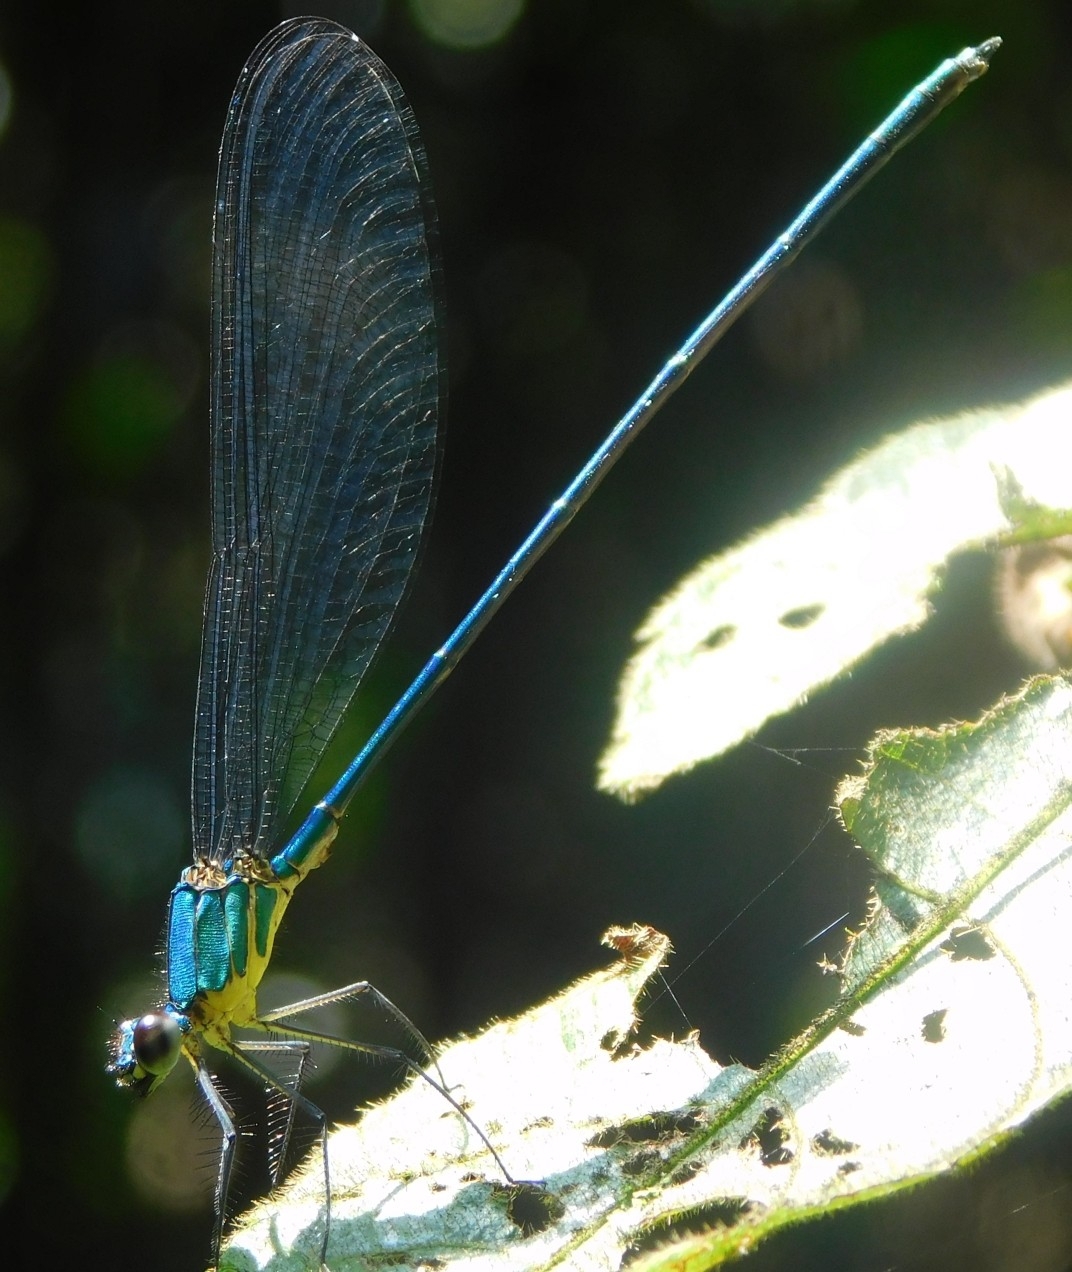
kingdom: Animalia
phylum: Arthropoda
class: Insecta
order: Odonata
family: Calopterygidae
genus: Vestalis
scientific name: Vestalis gracilis
